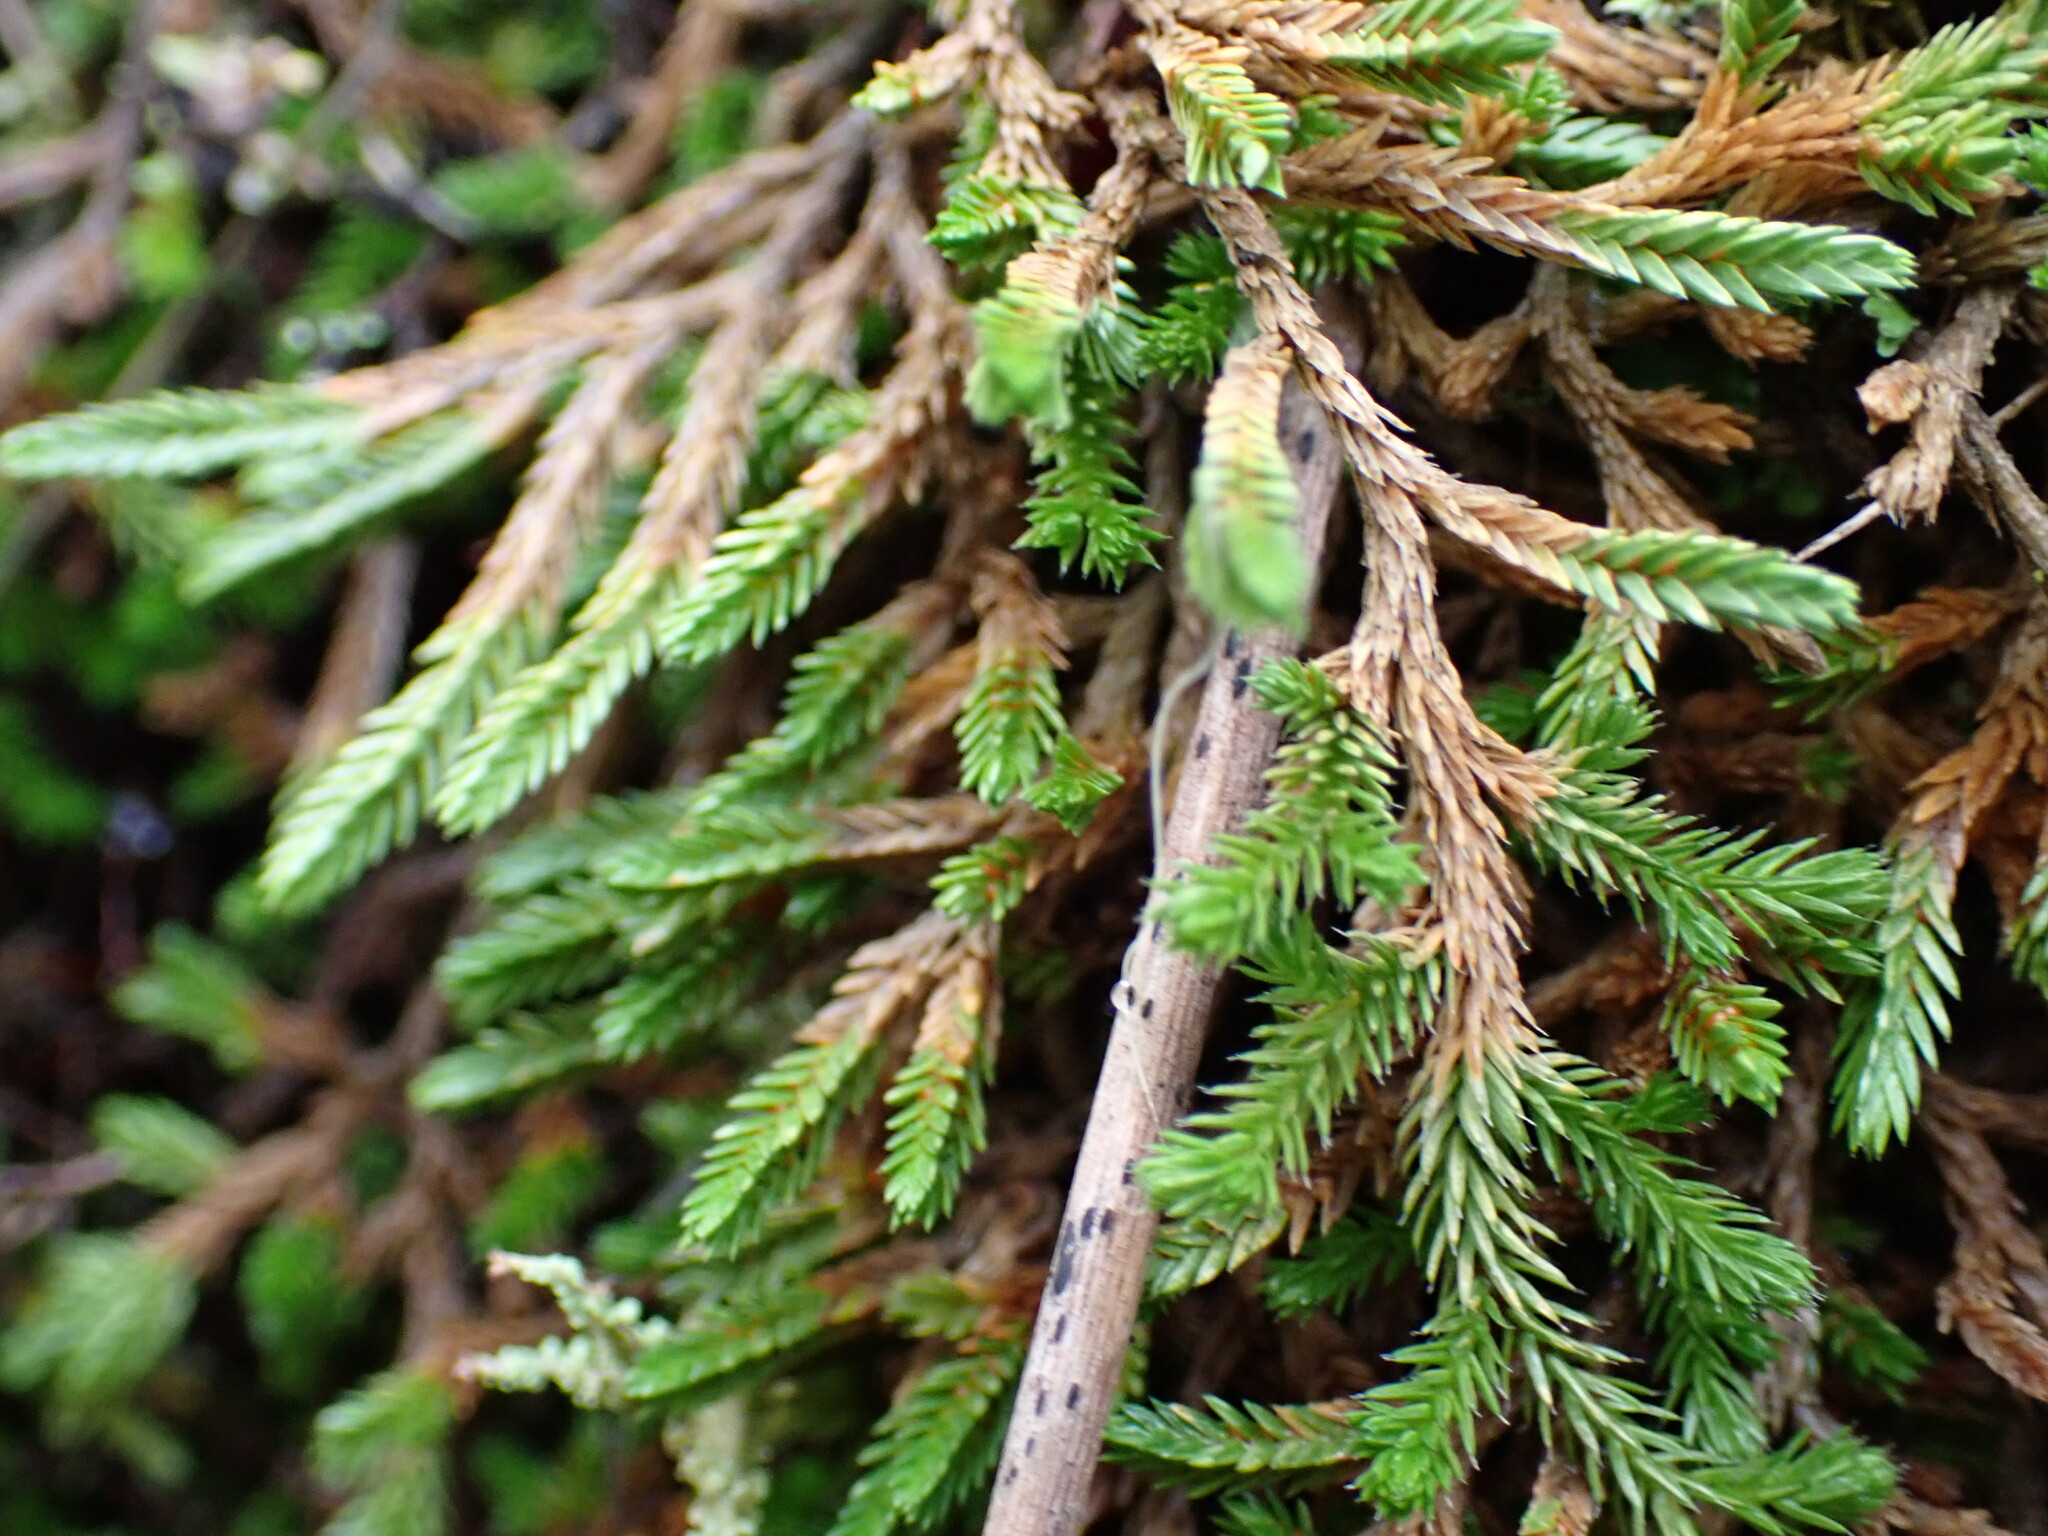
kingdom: Plantae
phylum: Tracheophyta
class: Lycopodiopsida
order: Selaginellales
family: Selaginellaceae
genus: Selaginella
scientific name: Selaginella wallacei
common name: Wallace's selaginella
